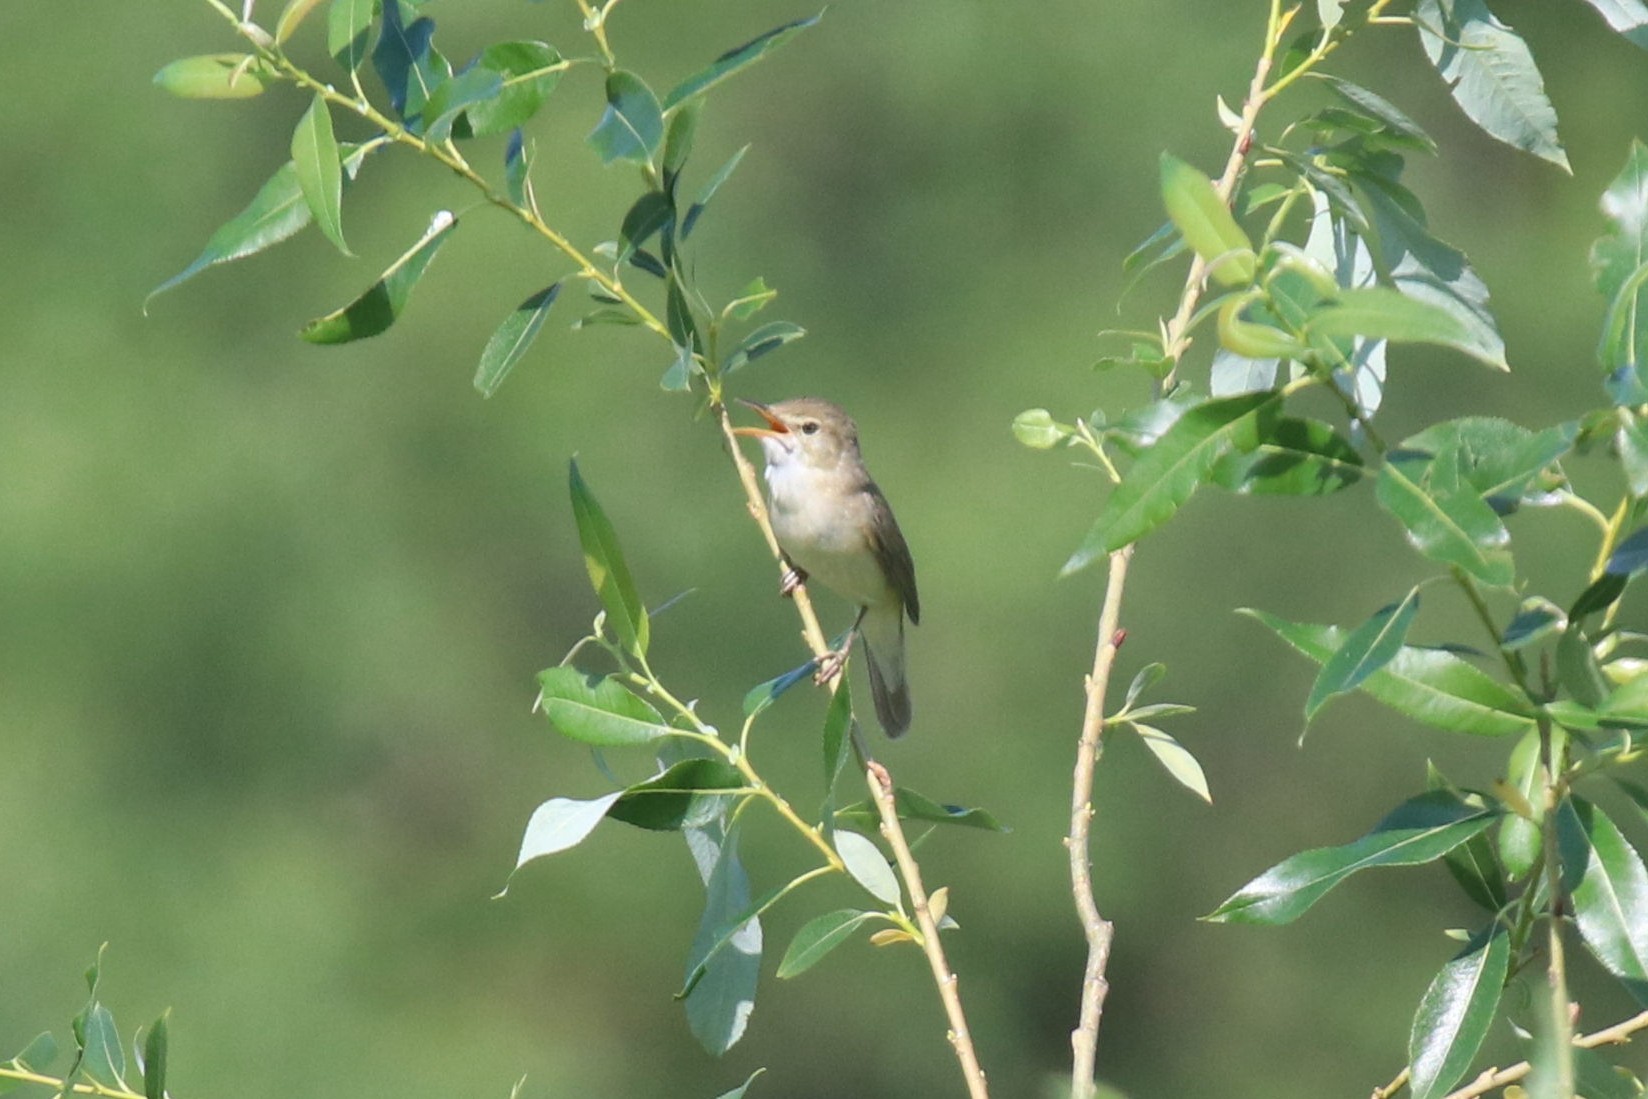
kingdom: Animalia
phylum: Chordata
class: Aves
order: Passeriformes
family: Acrocephalidae
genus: Acrocephalus
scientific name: Acrocephalus palustris
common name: Marsh warbler
